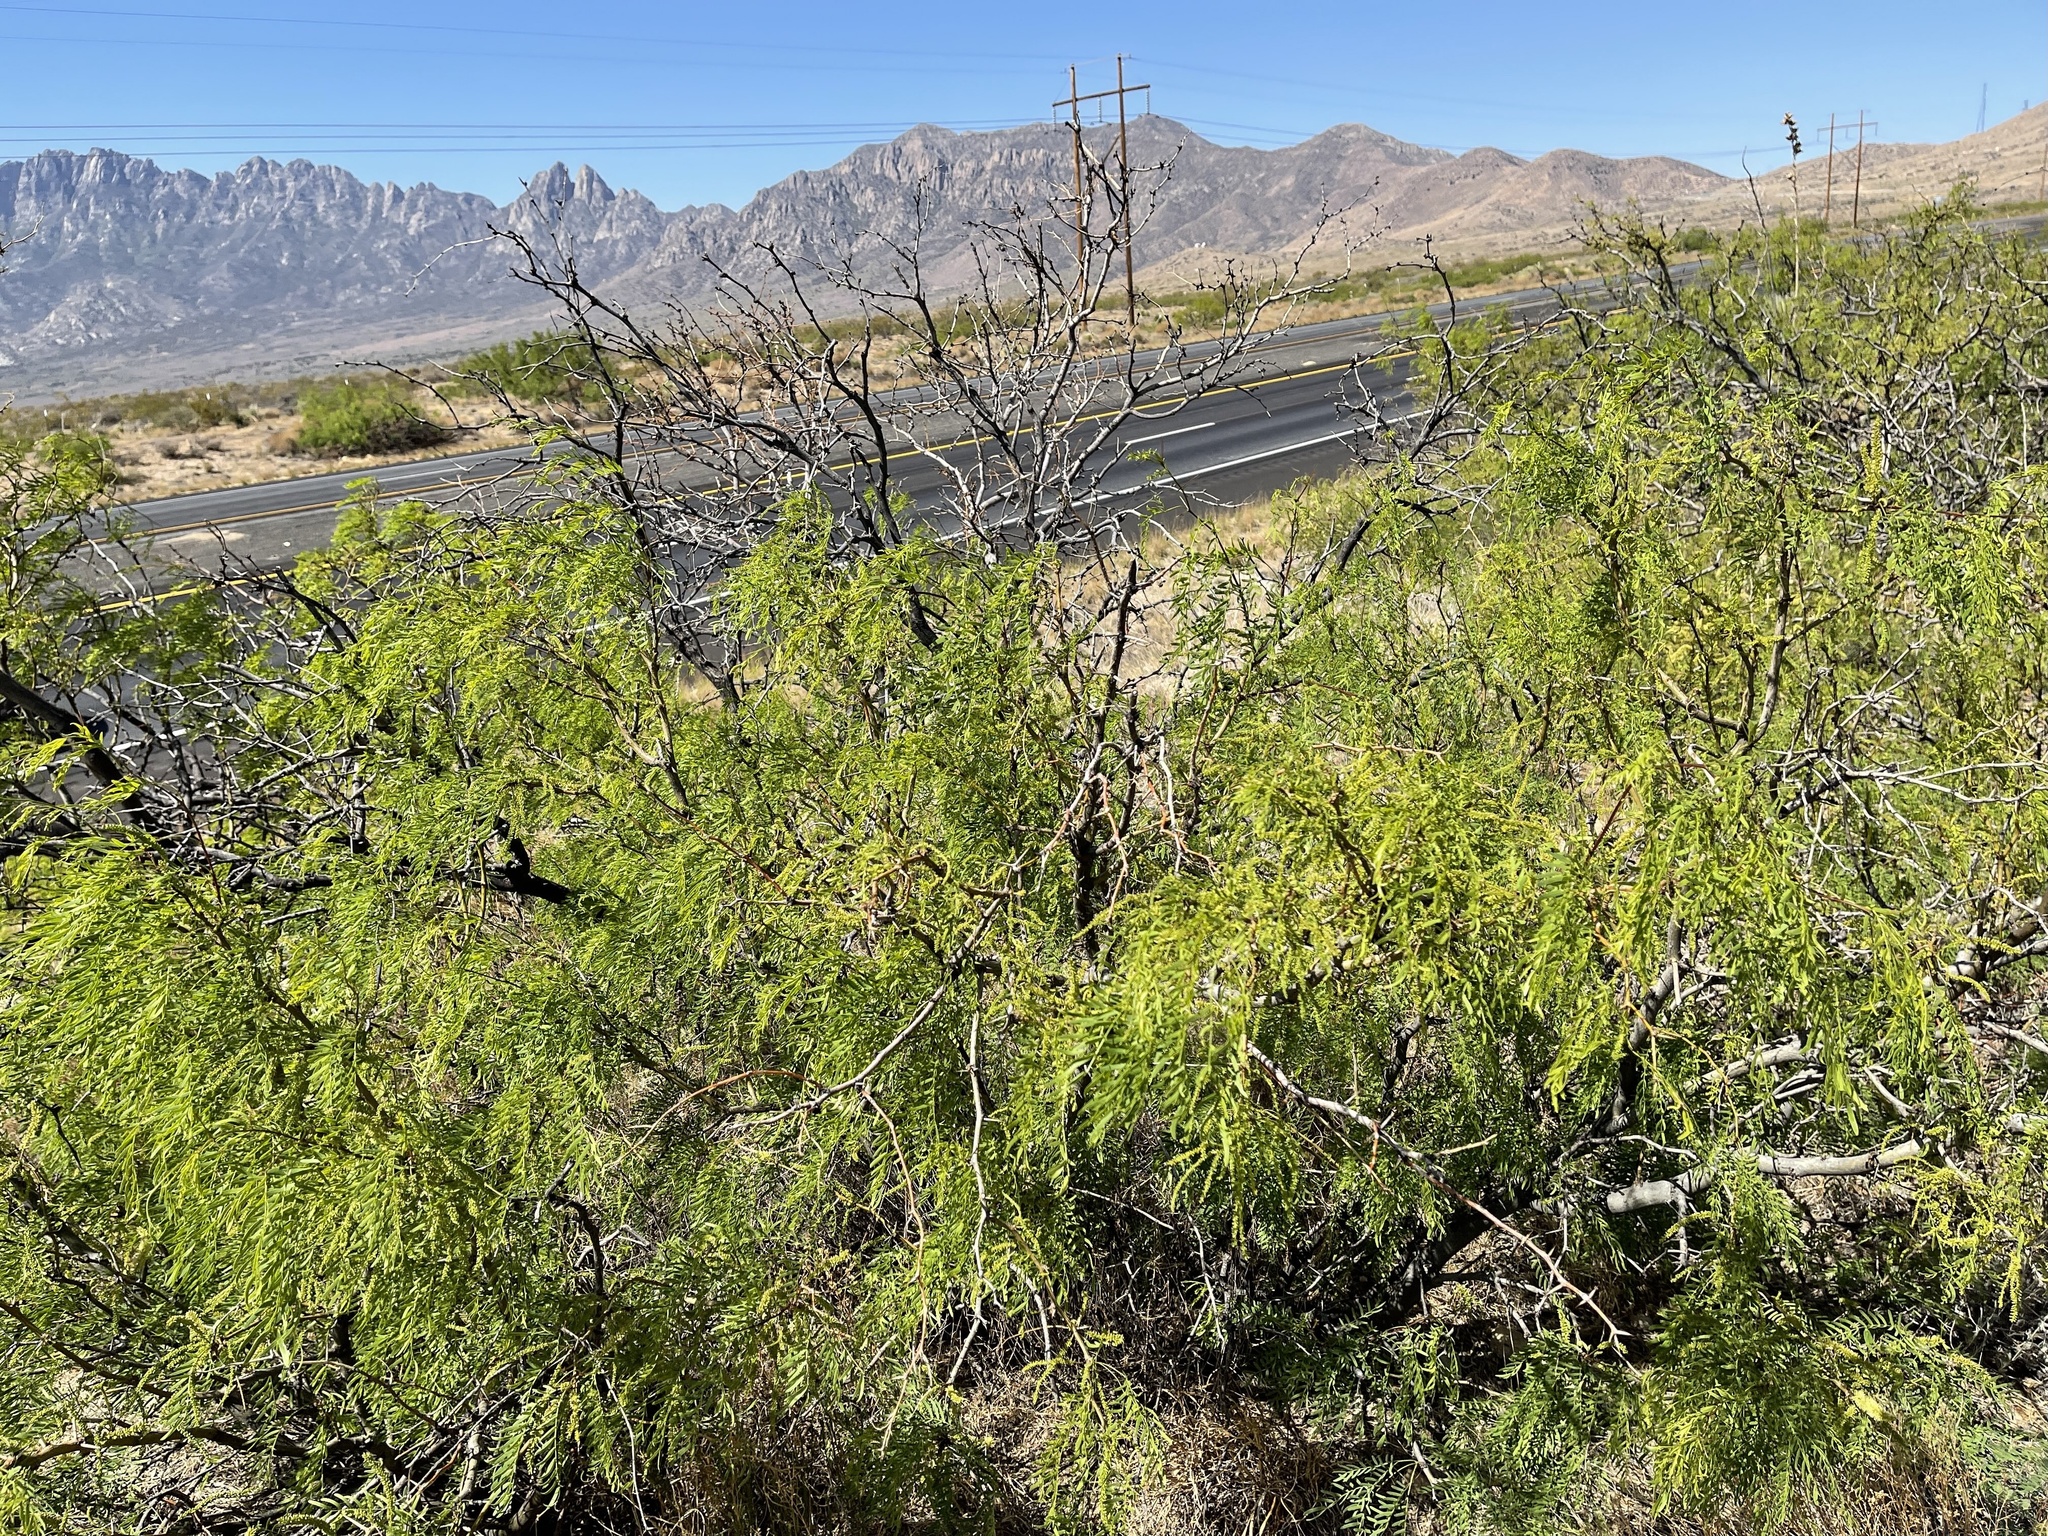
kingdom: Plantae
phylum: Tracheophyta
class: Magnoliopsida
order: Fabales
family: Fabaceae
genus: Prosopis
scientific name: Prosopis glandulosa
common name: Honey mesquite
